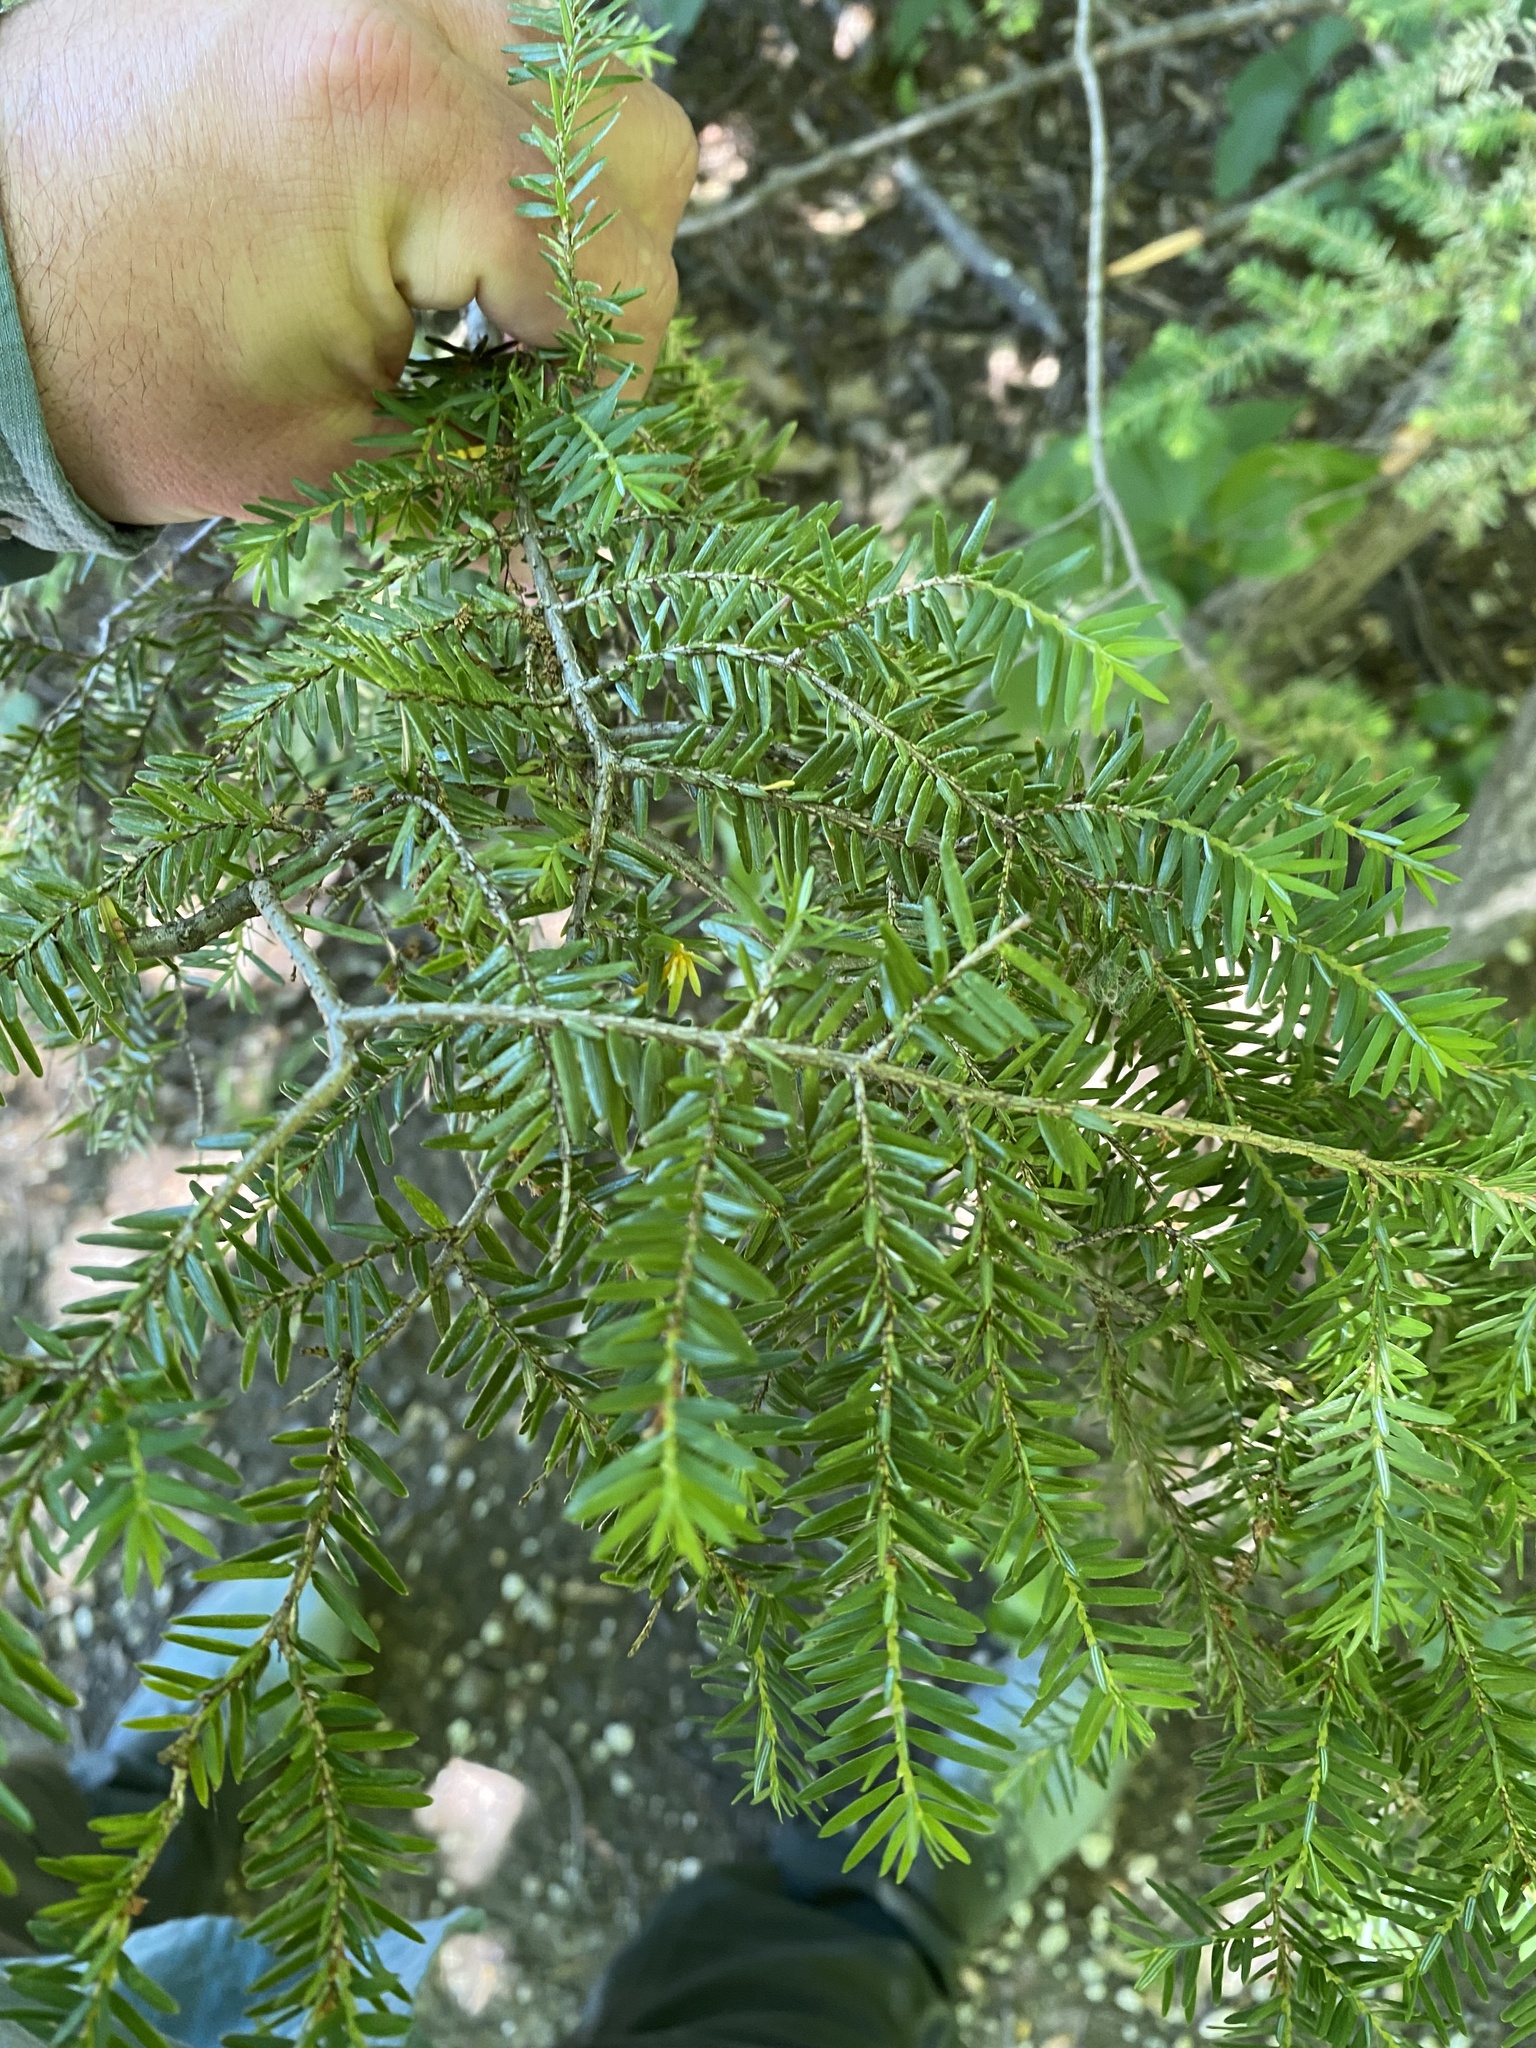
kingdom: Plantae
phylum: Tracheophyta
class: Pinopsida
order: Pinales
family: Pinaceae
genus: Tsuga
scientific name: Tsuga canadensis
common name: Eastern hemlock
